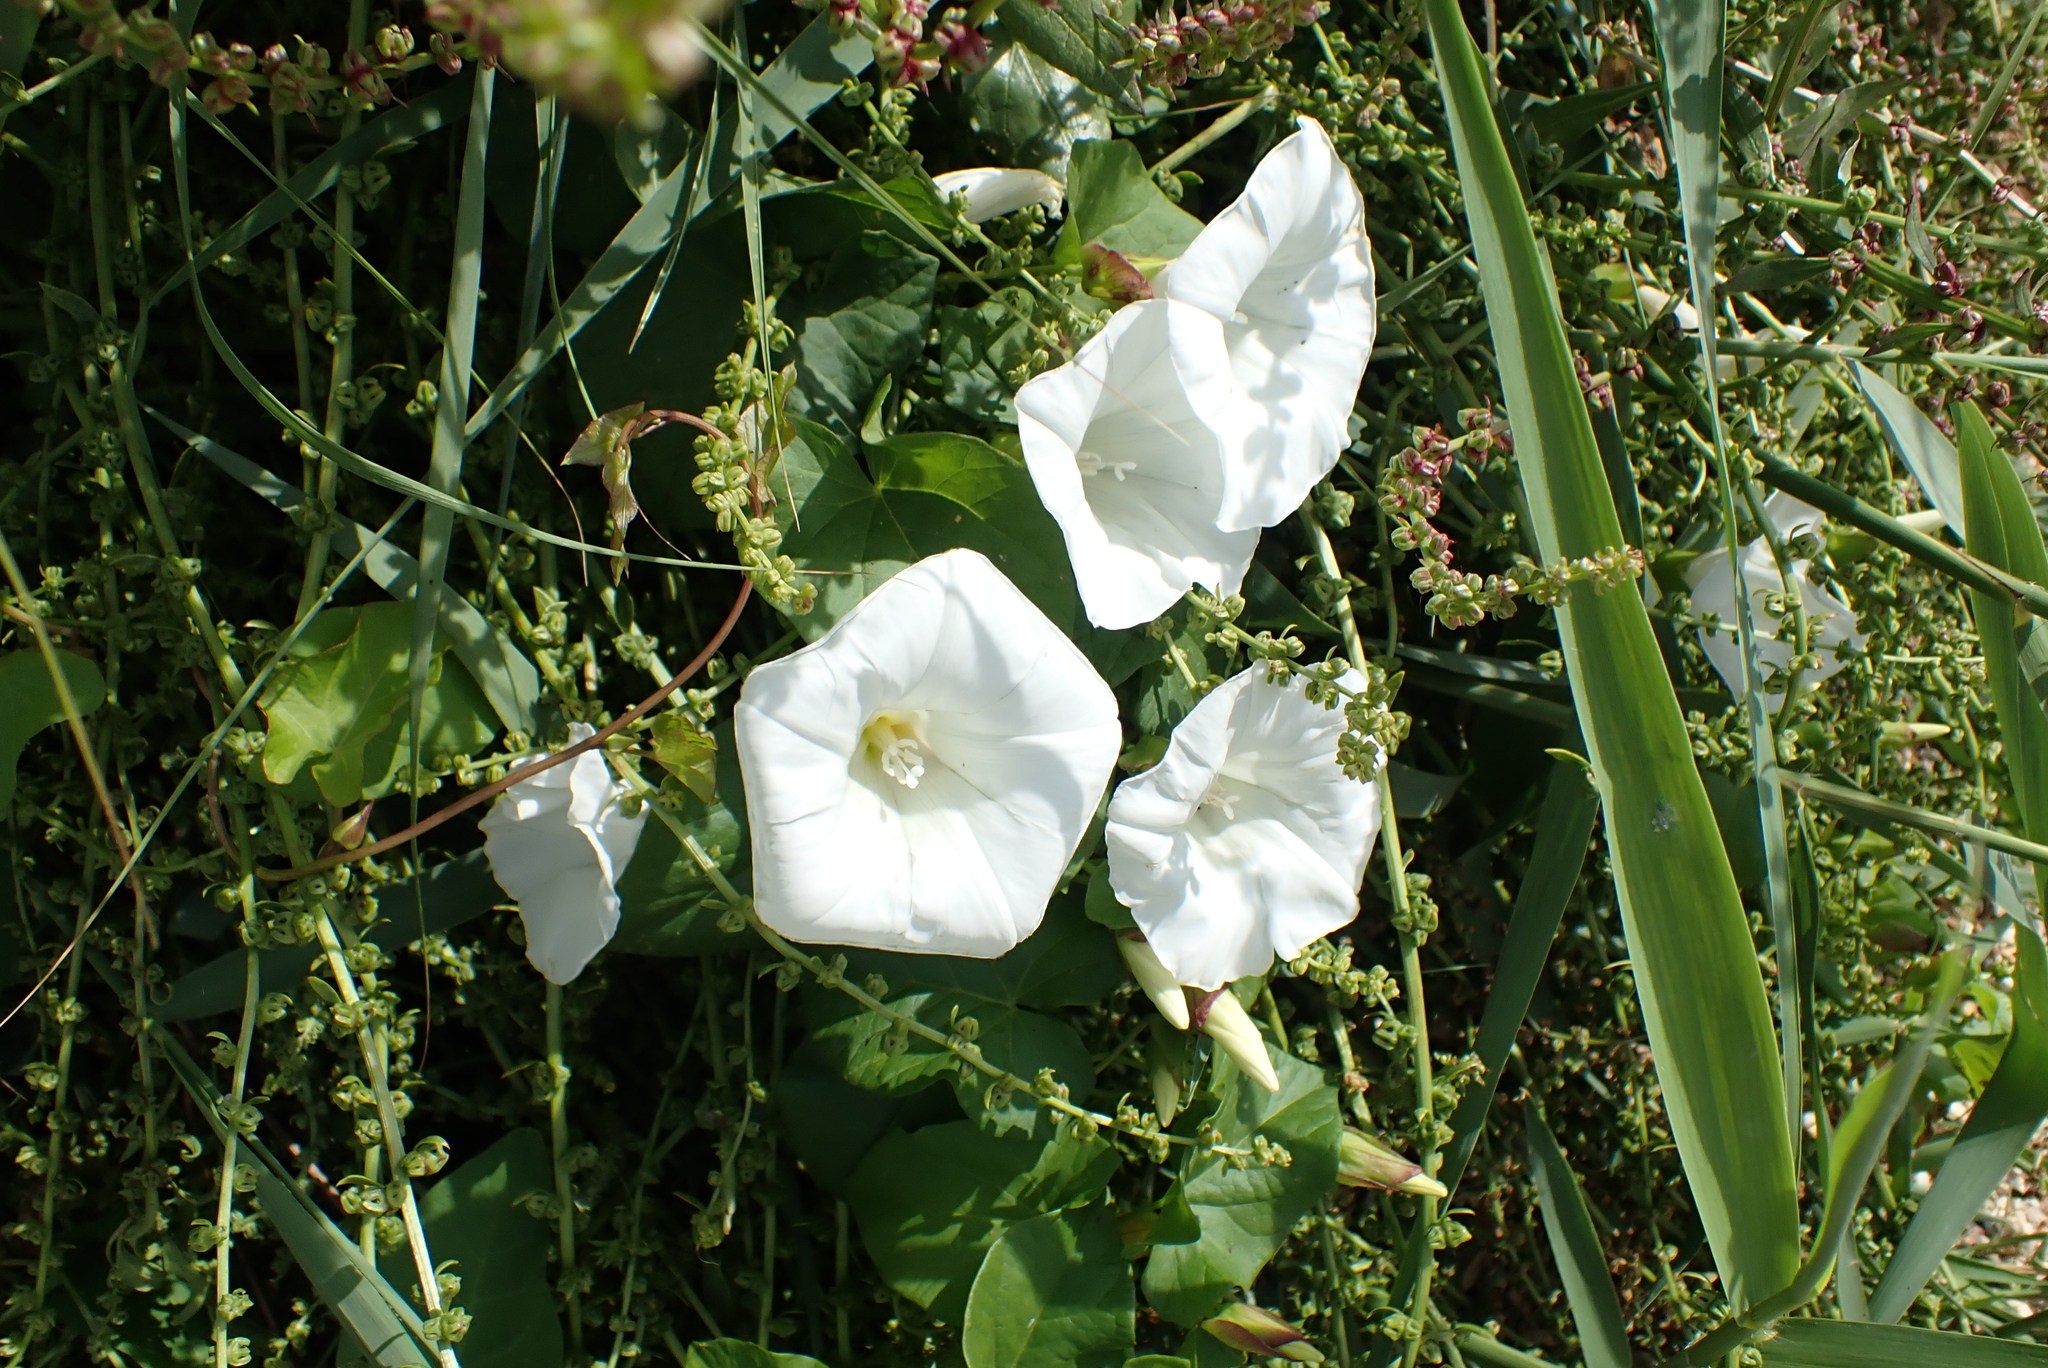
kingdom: Plantae
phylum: Tracheophyta
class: Magnoliopsida
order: Solanales
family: Convolvulaceae
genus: Calystegia
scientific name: Calystegia sepium
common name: Hedge bindweed
